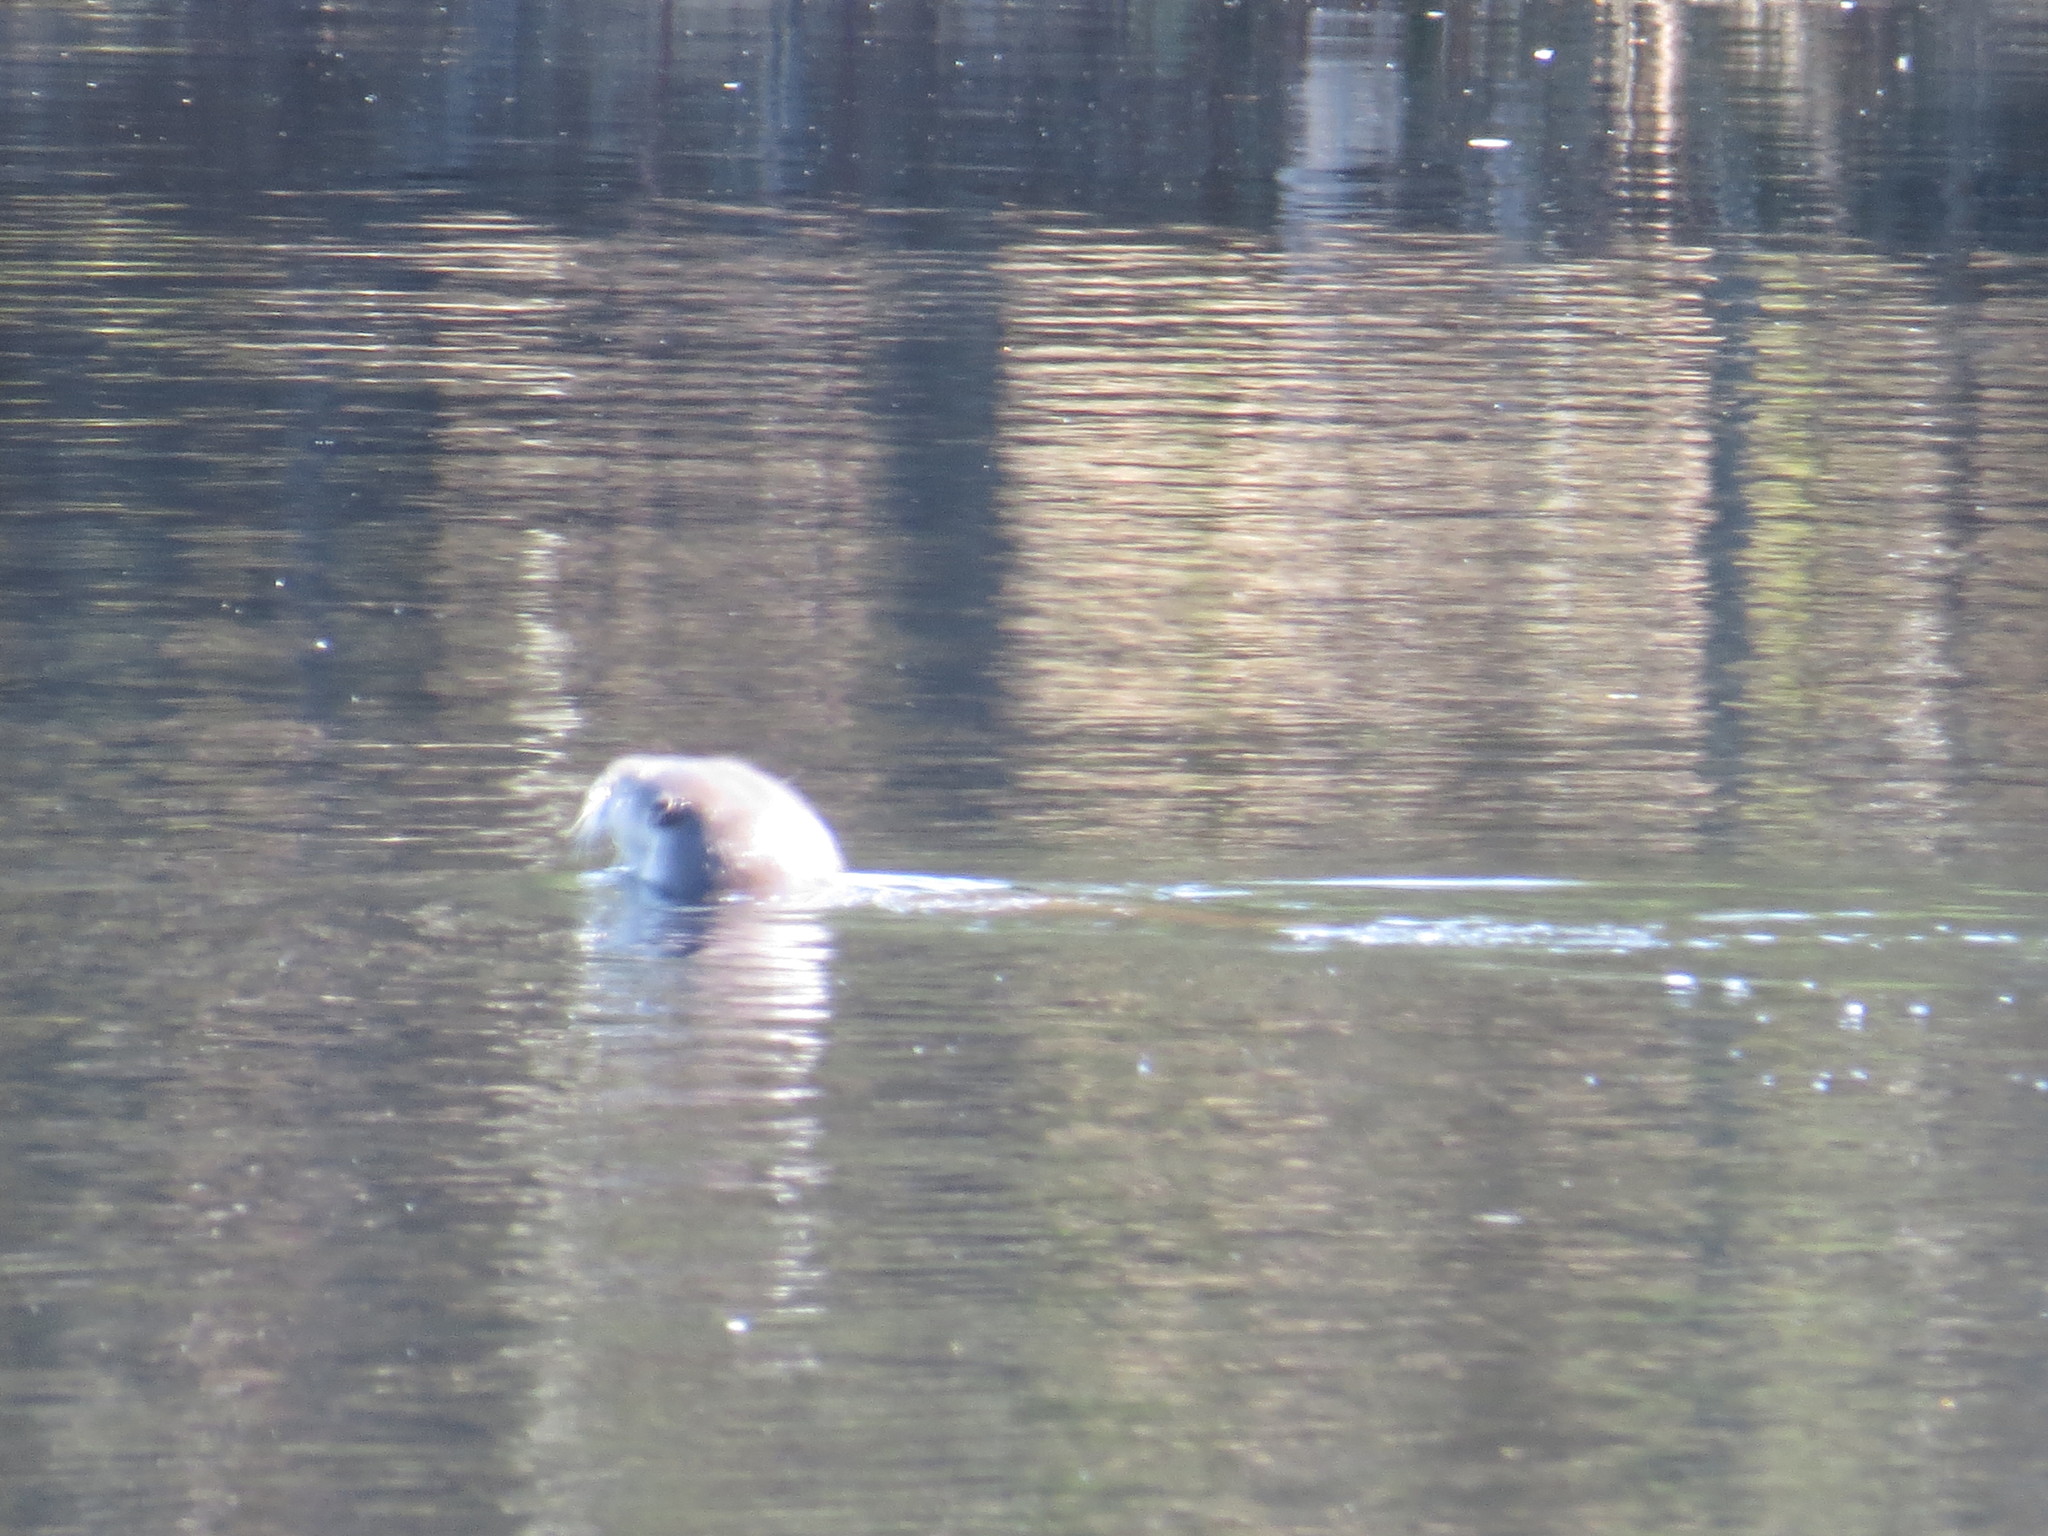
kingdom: Animalia
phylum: Chordata
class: Mammalia
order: Carnivora
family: Mustelidae
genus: Lontra
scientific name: Lontra canadensis
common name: North american river otter
